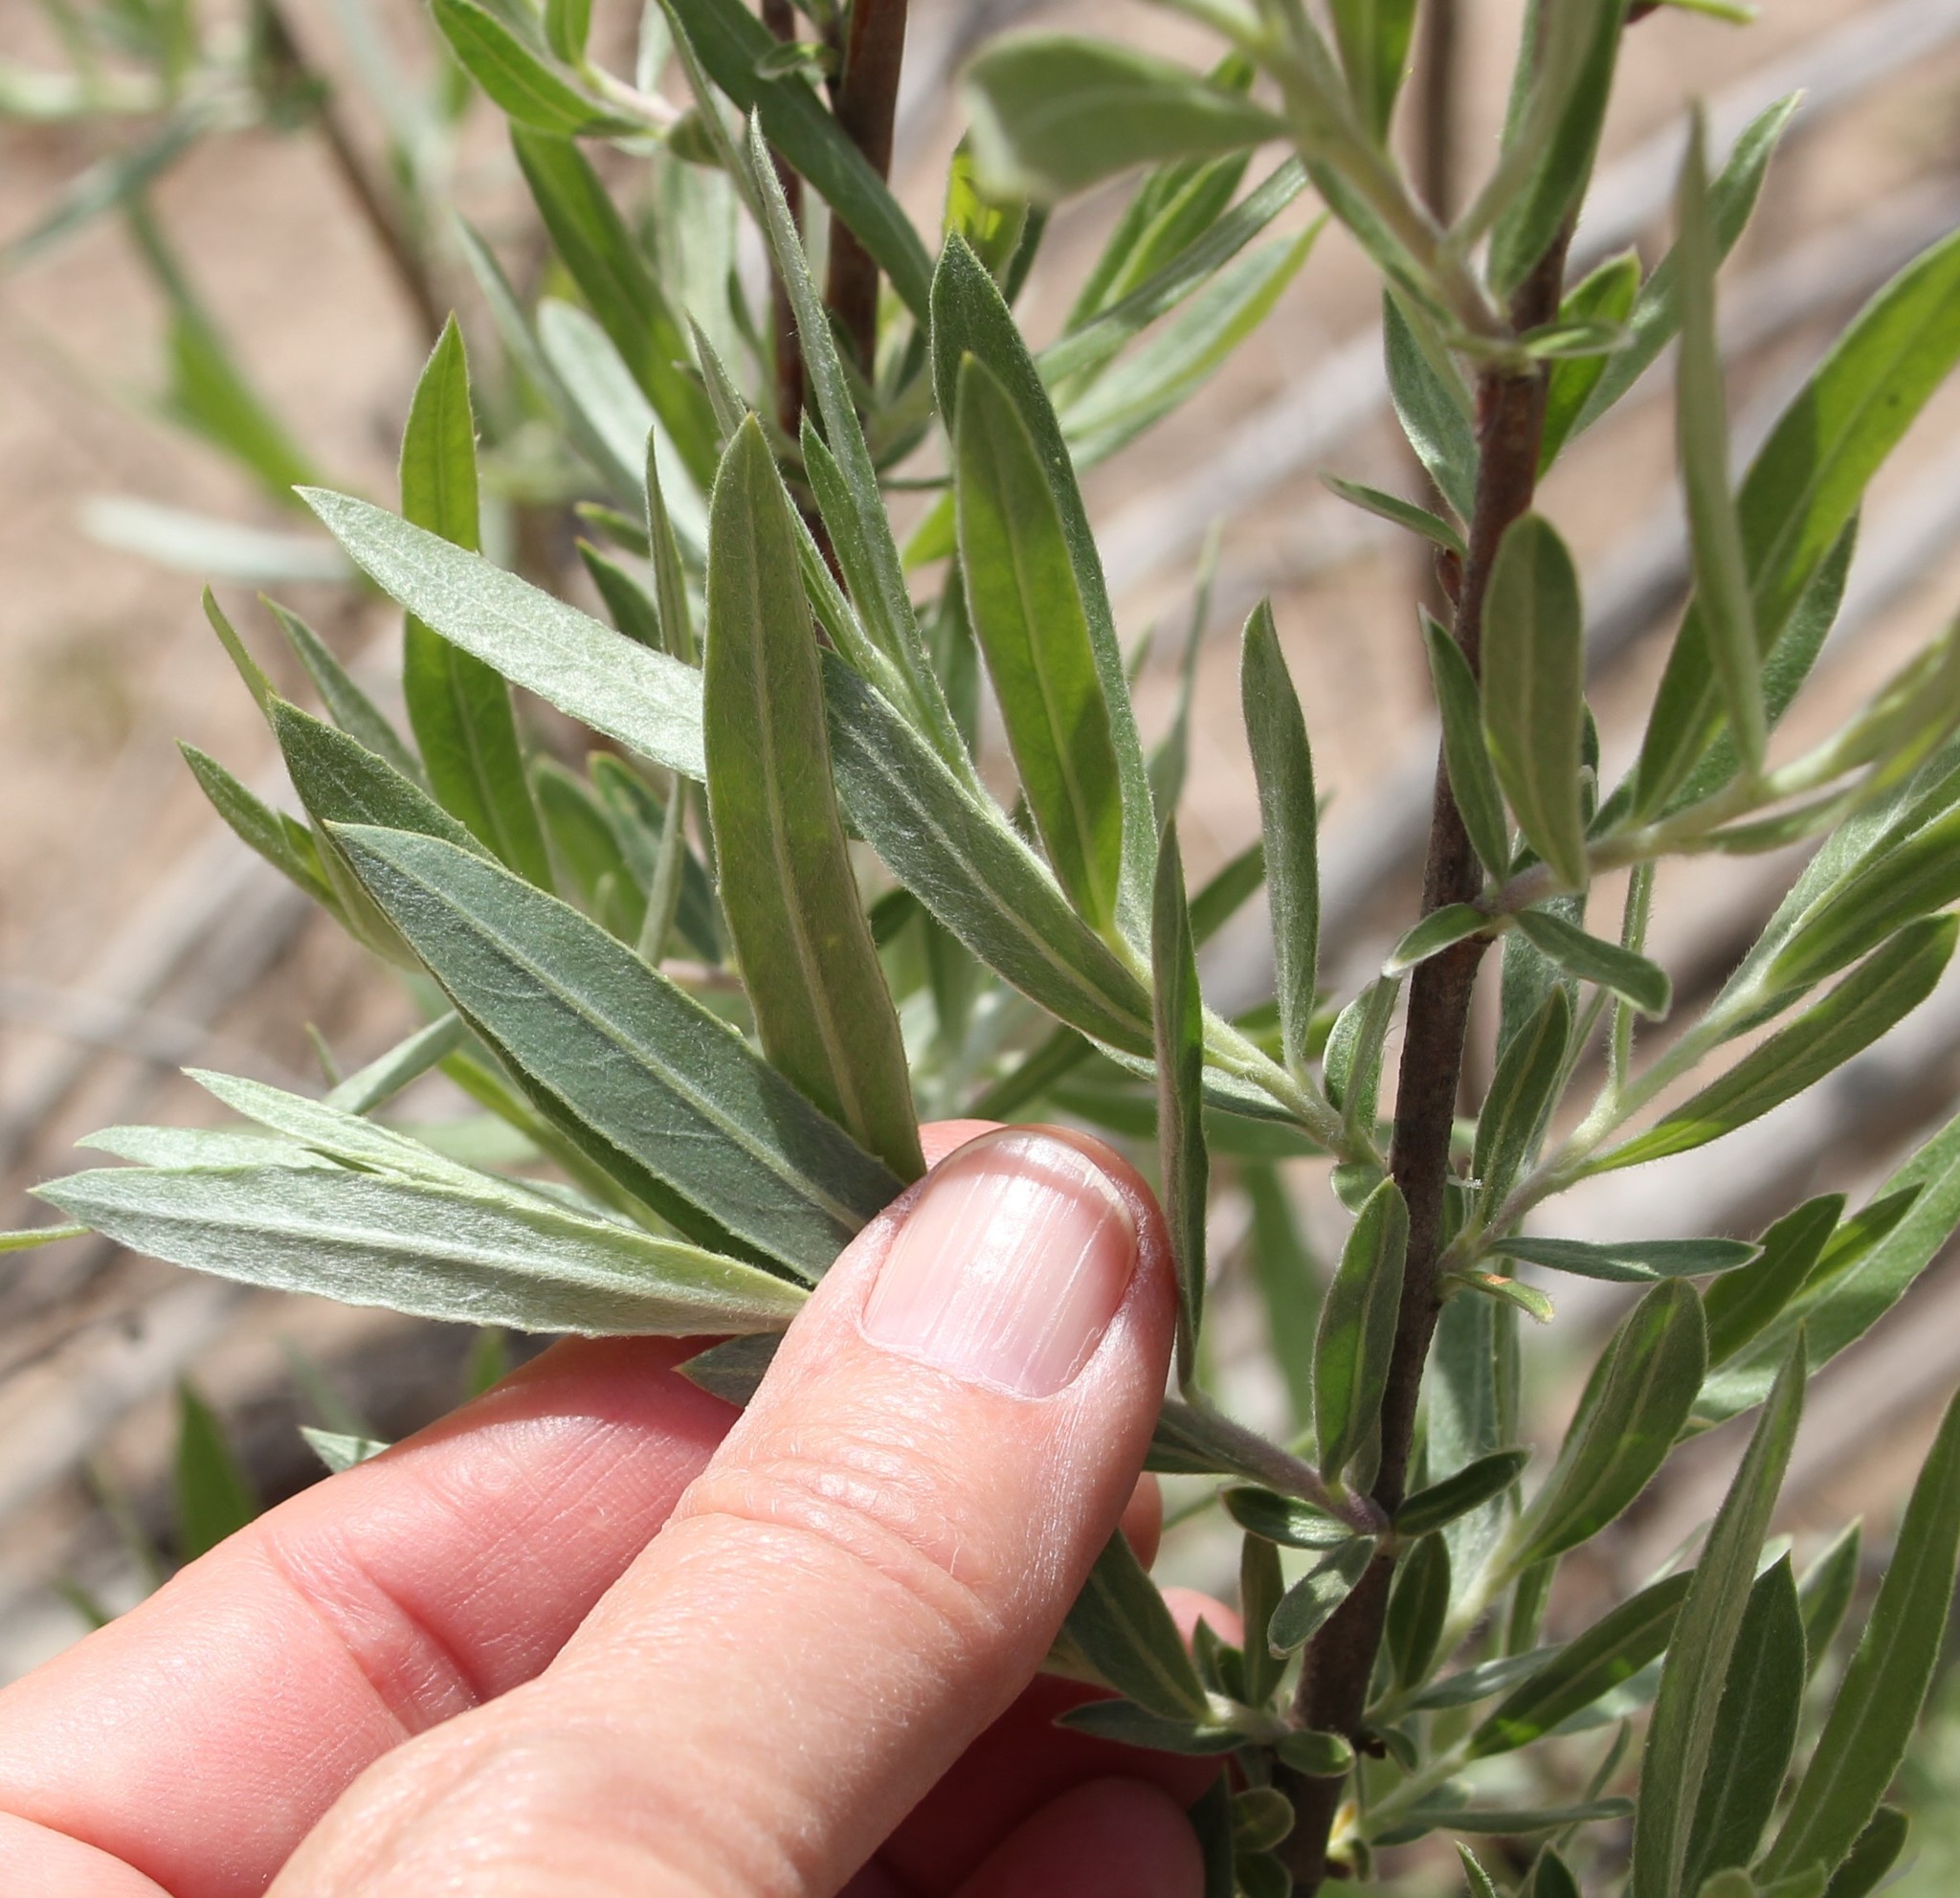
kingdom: Plantae
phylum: Tracheophyta
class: Magnoliopsida
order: Malpighiales
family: Salicaceae
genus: Salix
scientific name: Salix exigua
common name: Coyote willow
